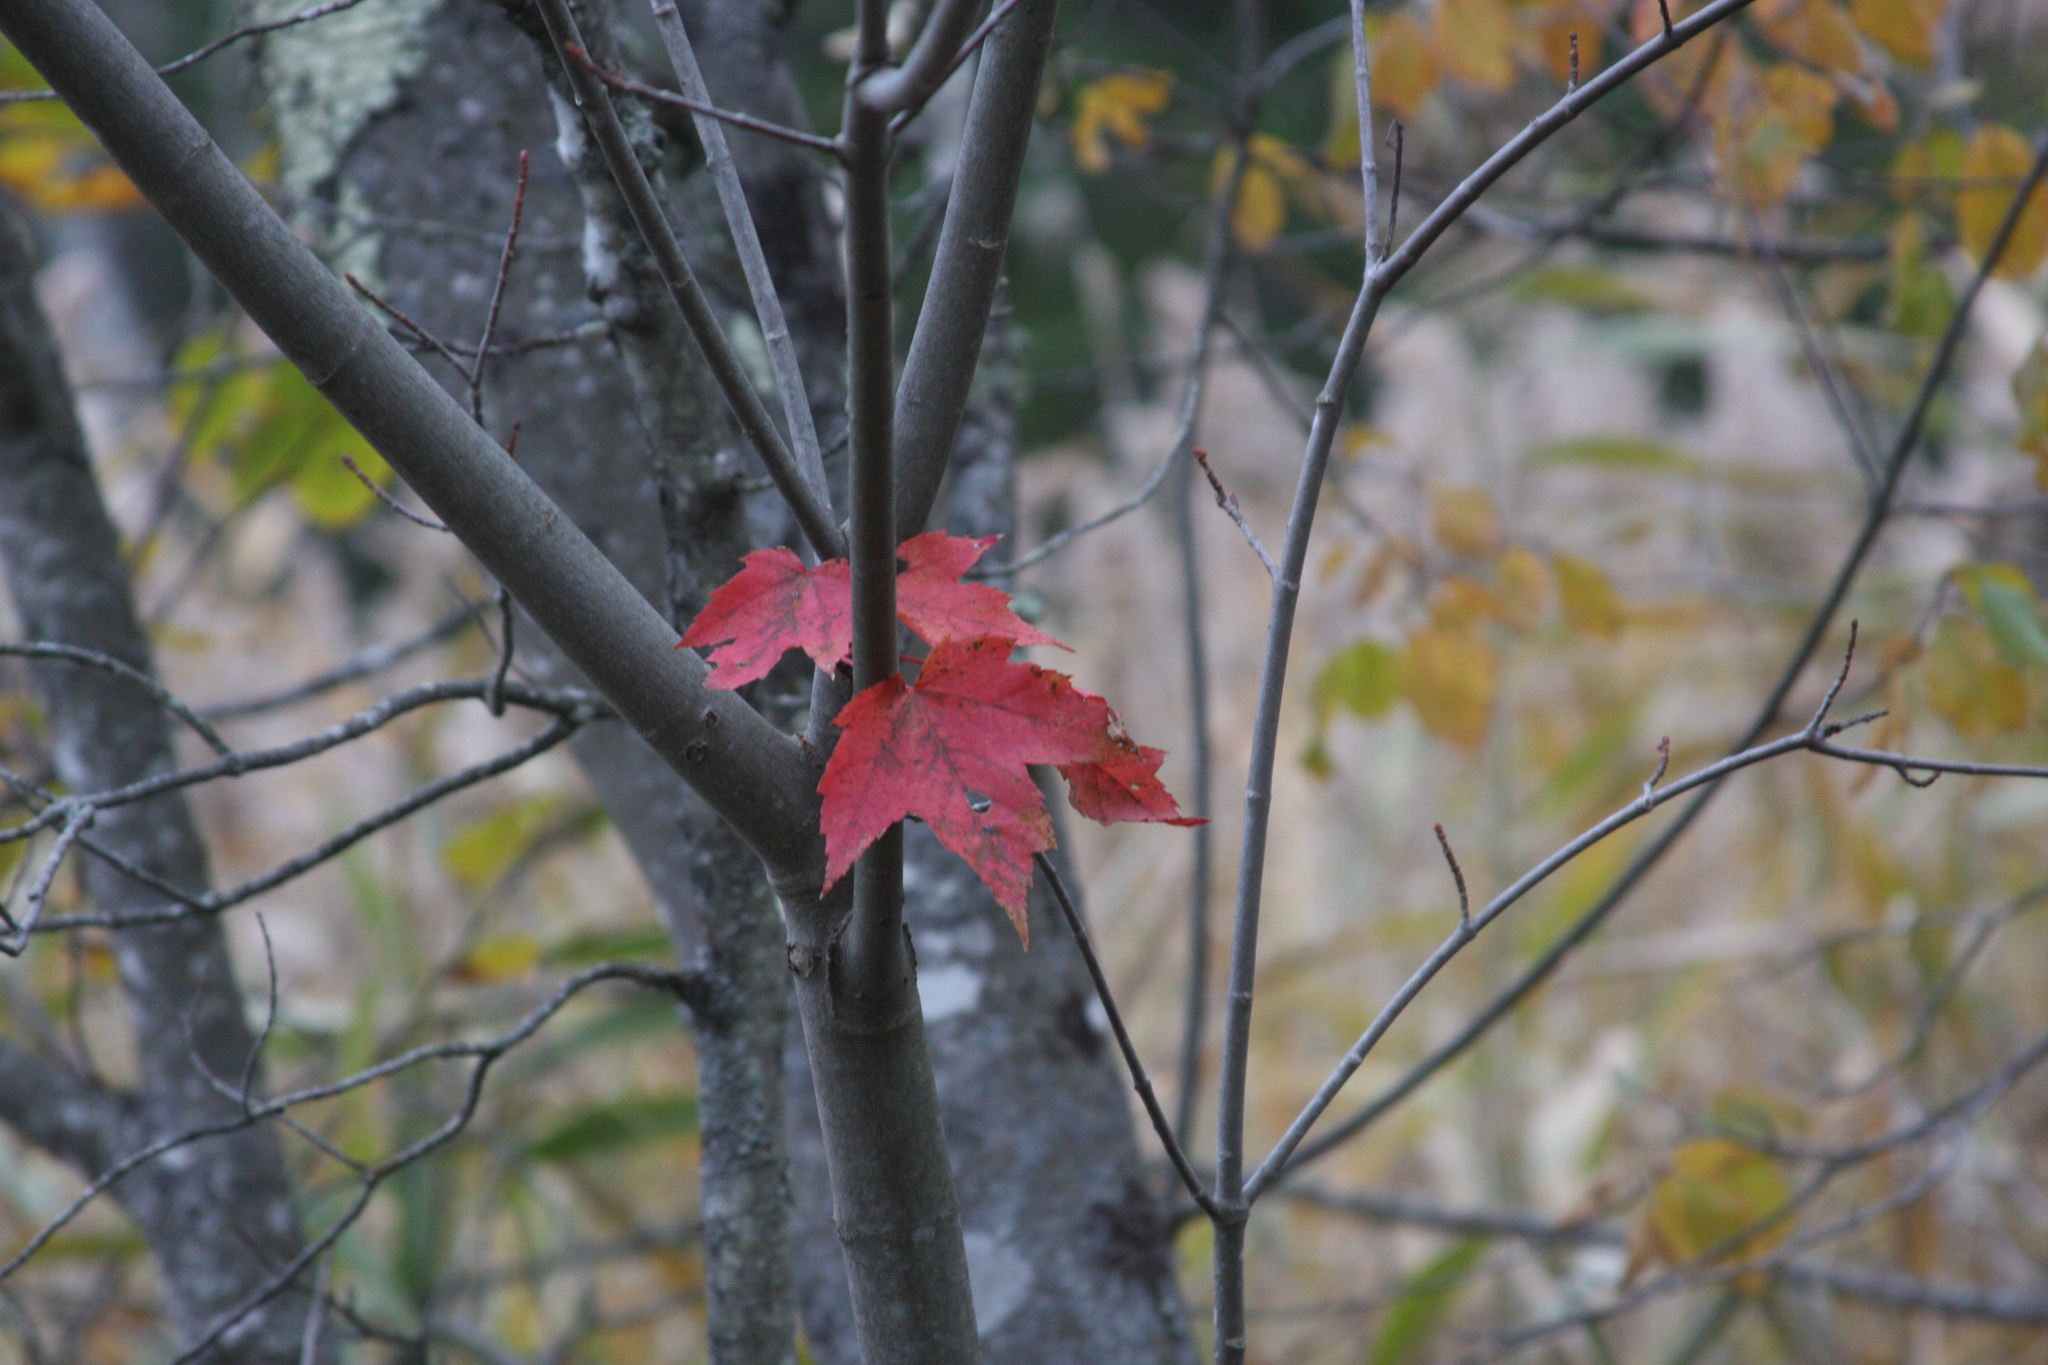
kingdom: Plantae
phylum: Tracheophyta
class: Magnoliopsida
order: Sapindales
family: Sapindaceae
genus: Acer
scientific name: Acer rubrum
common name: Red maple
